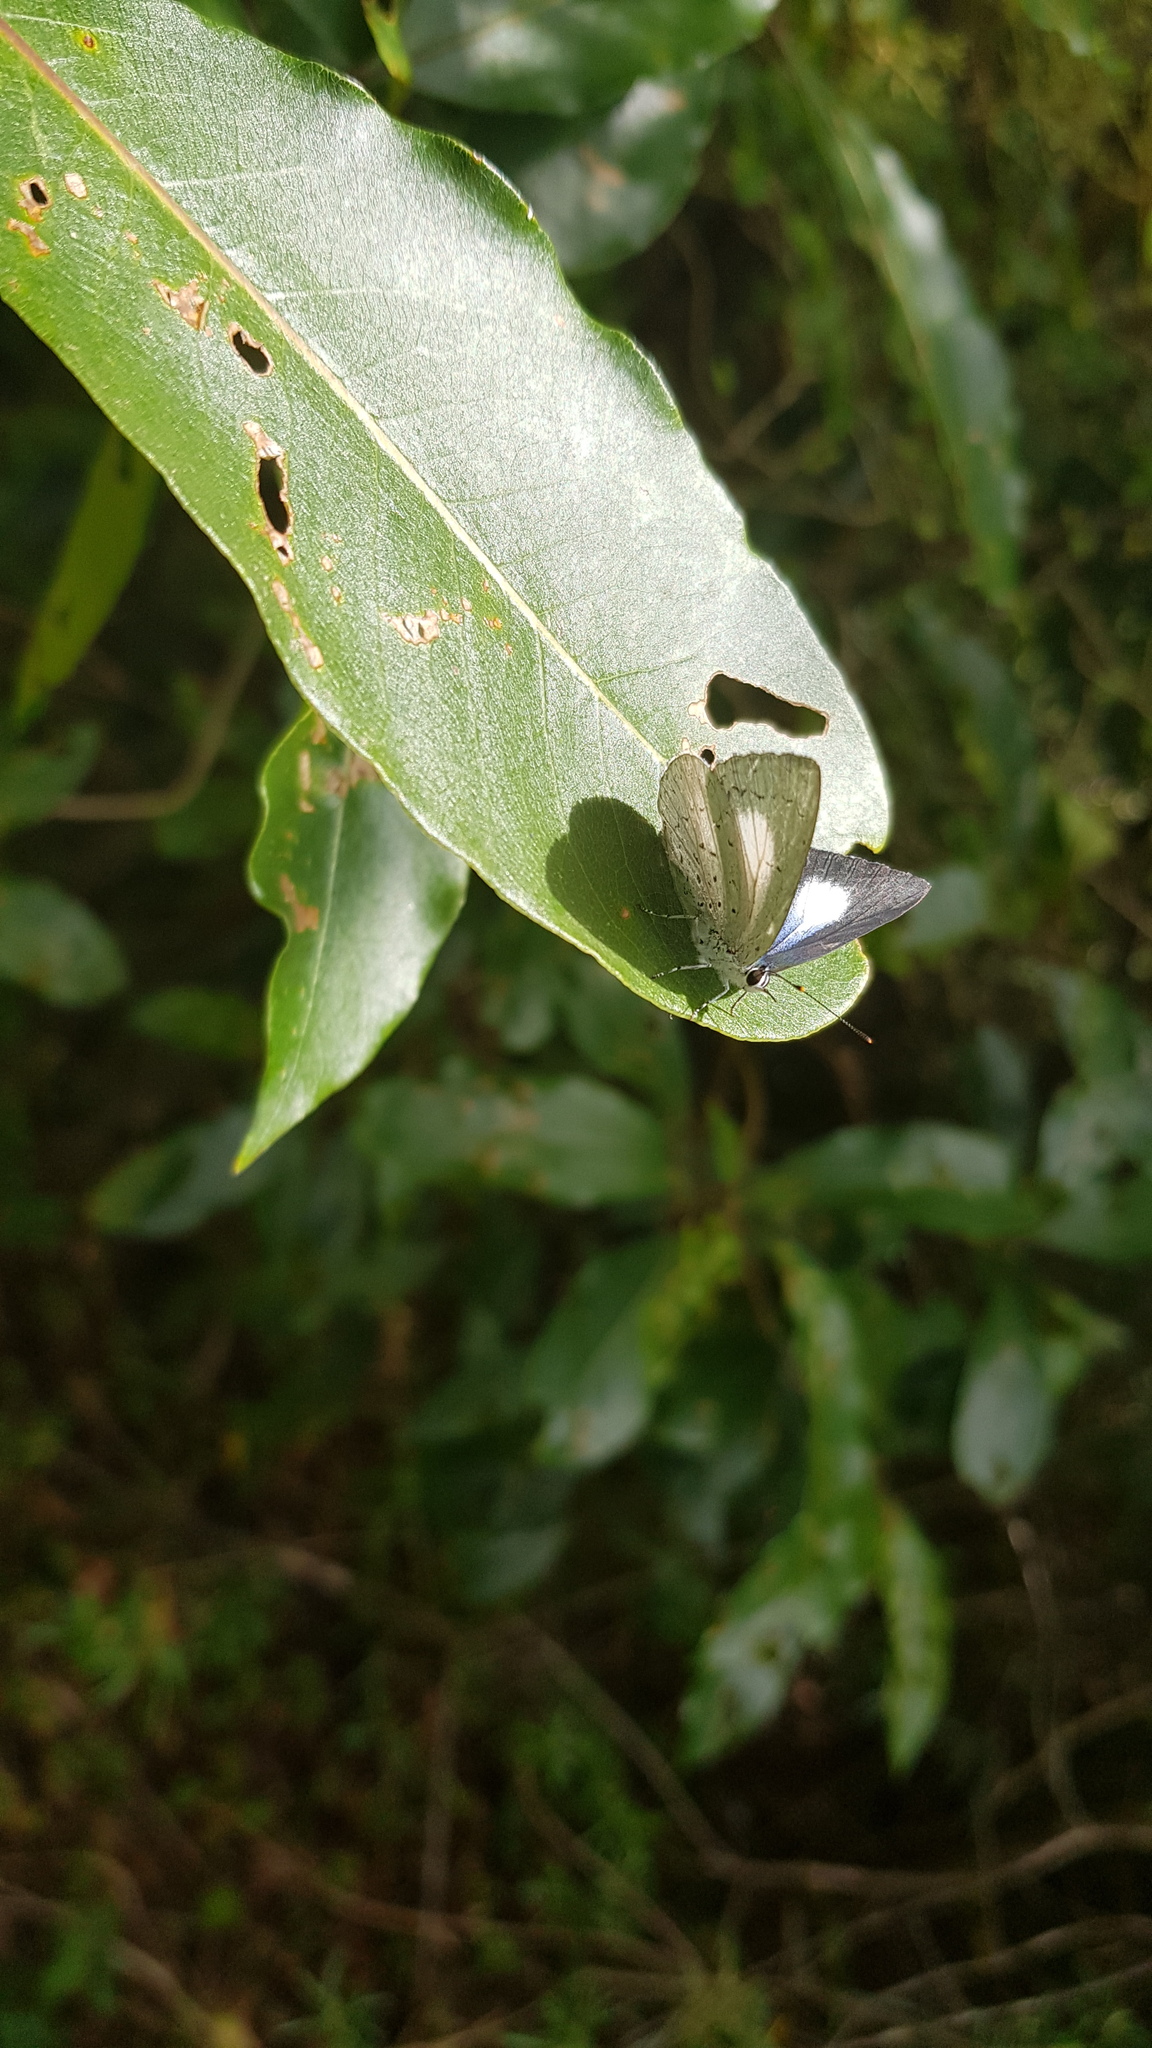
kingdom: Animalia
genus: Eirmocides
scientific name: Eirmocides
